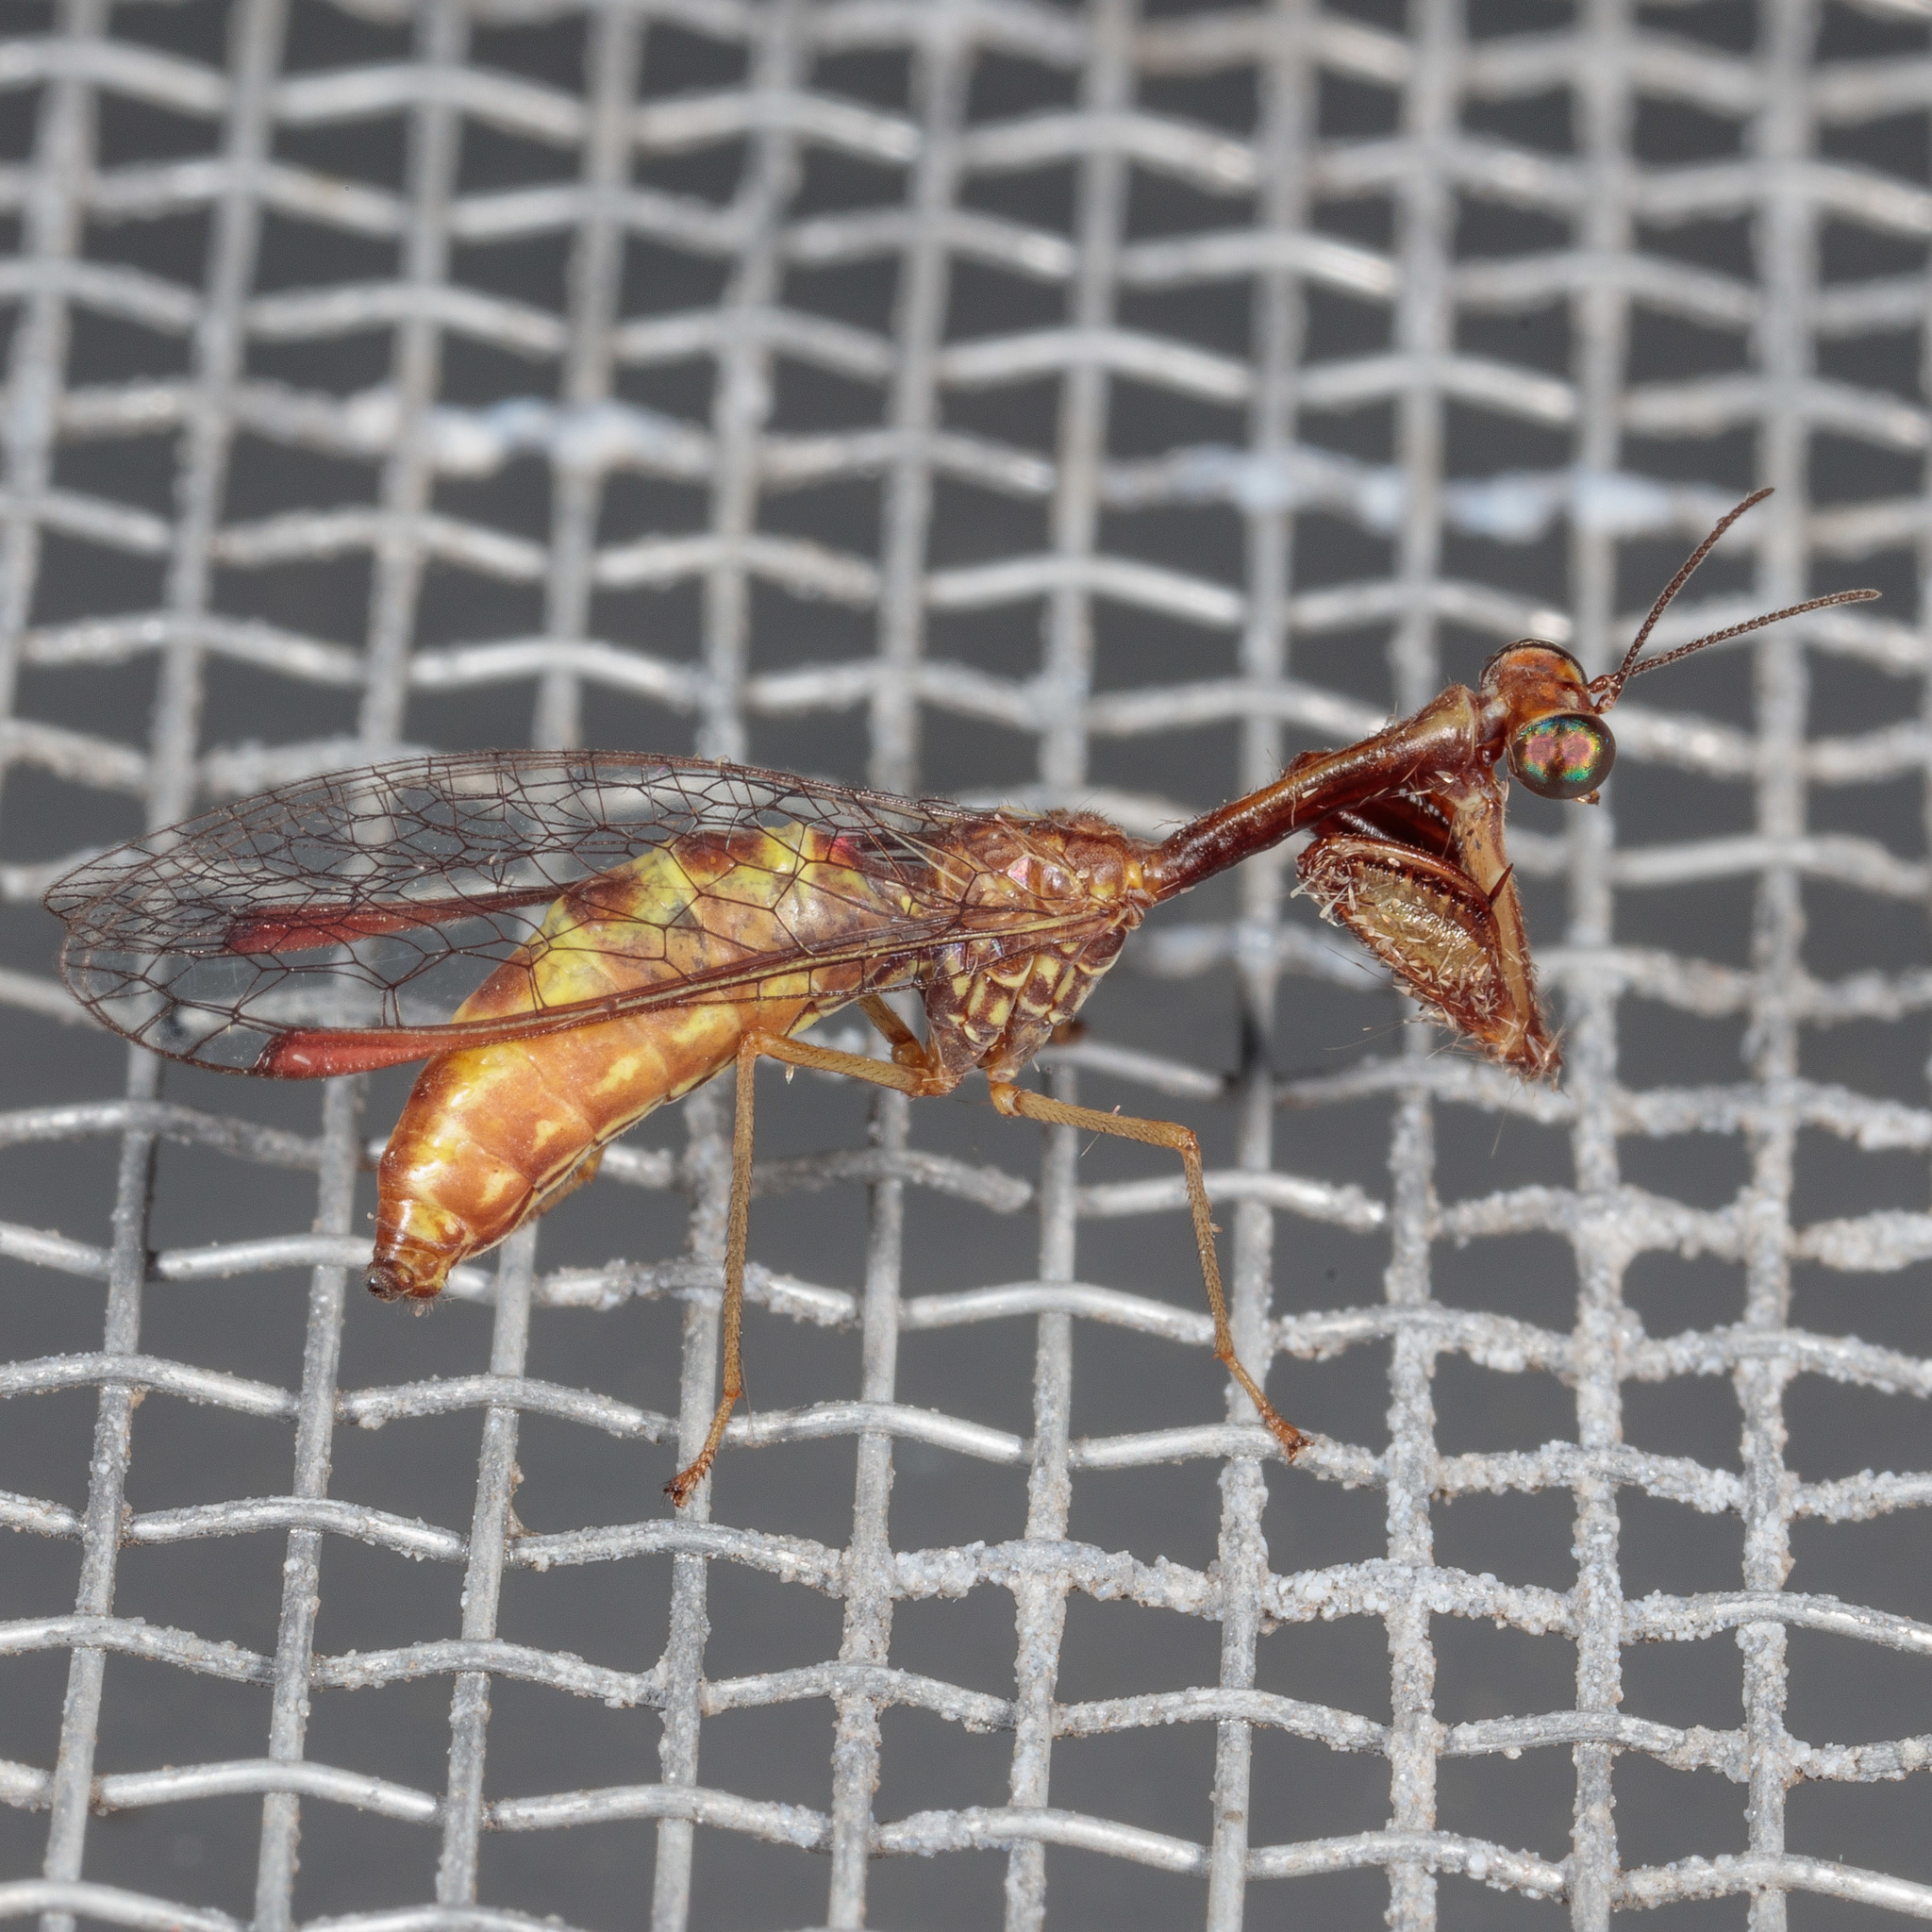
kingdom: Animalia
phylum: Arthropoda
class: Insecta
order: Neuroptera
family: Mantispidae
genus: Leptomantispa
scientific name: Leptomantispa pulchella
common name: Stevens's mantidfly
